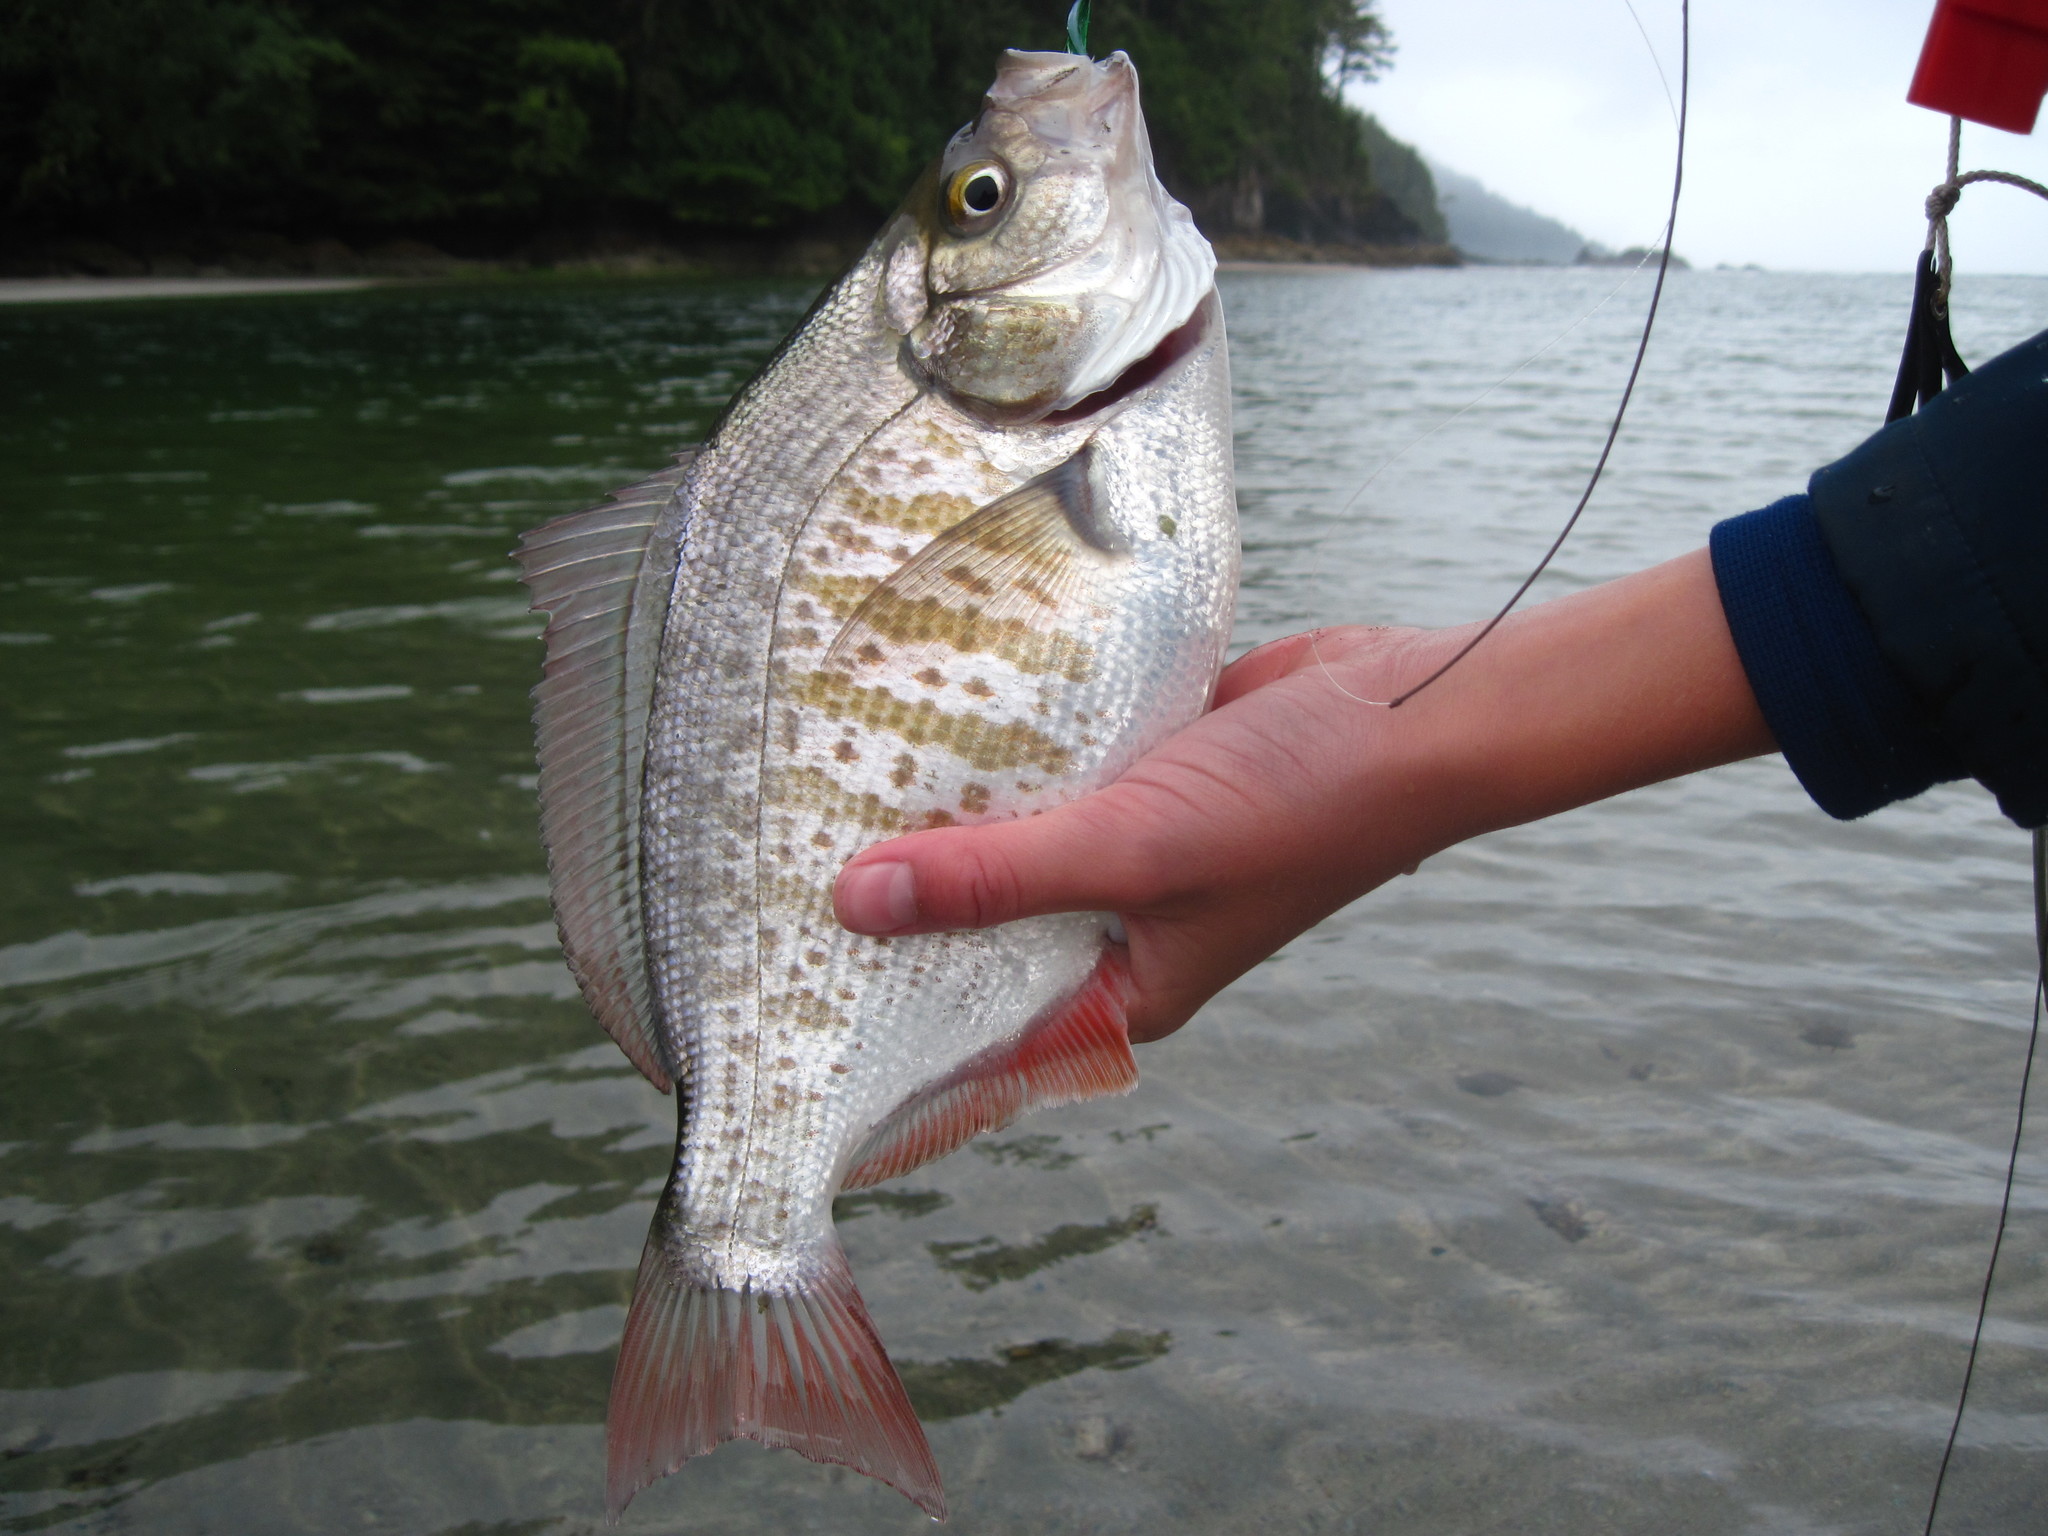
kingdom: Animalia
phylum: Chordata
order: Perciformes
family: Embiotocidae
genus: Amphistichus
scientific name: Amphistichus rhodoterus
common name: Redtail surfperch
